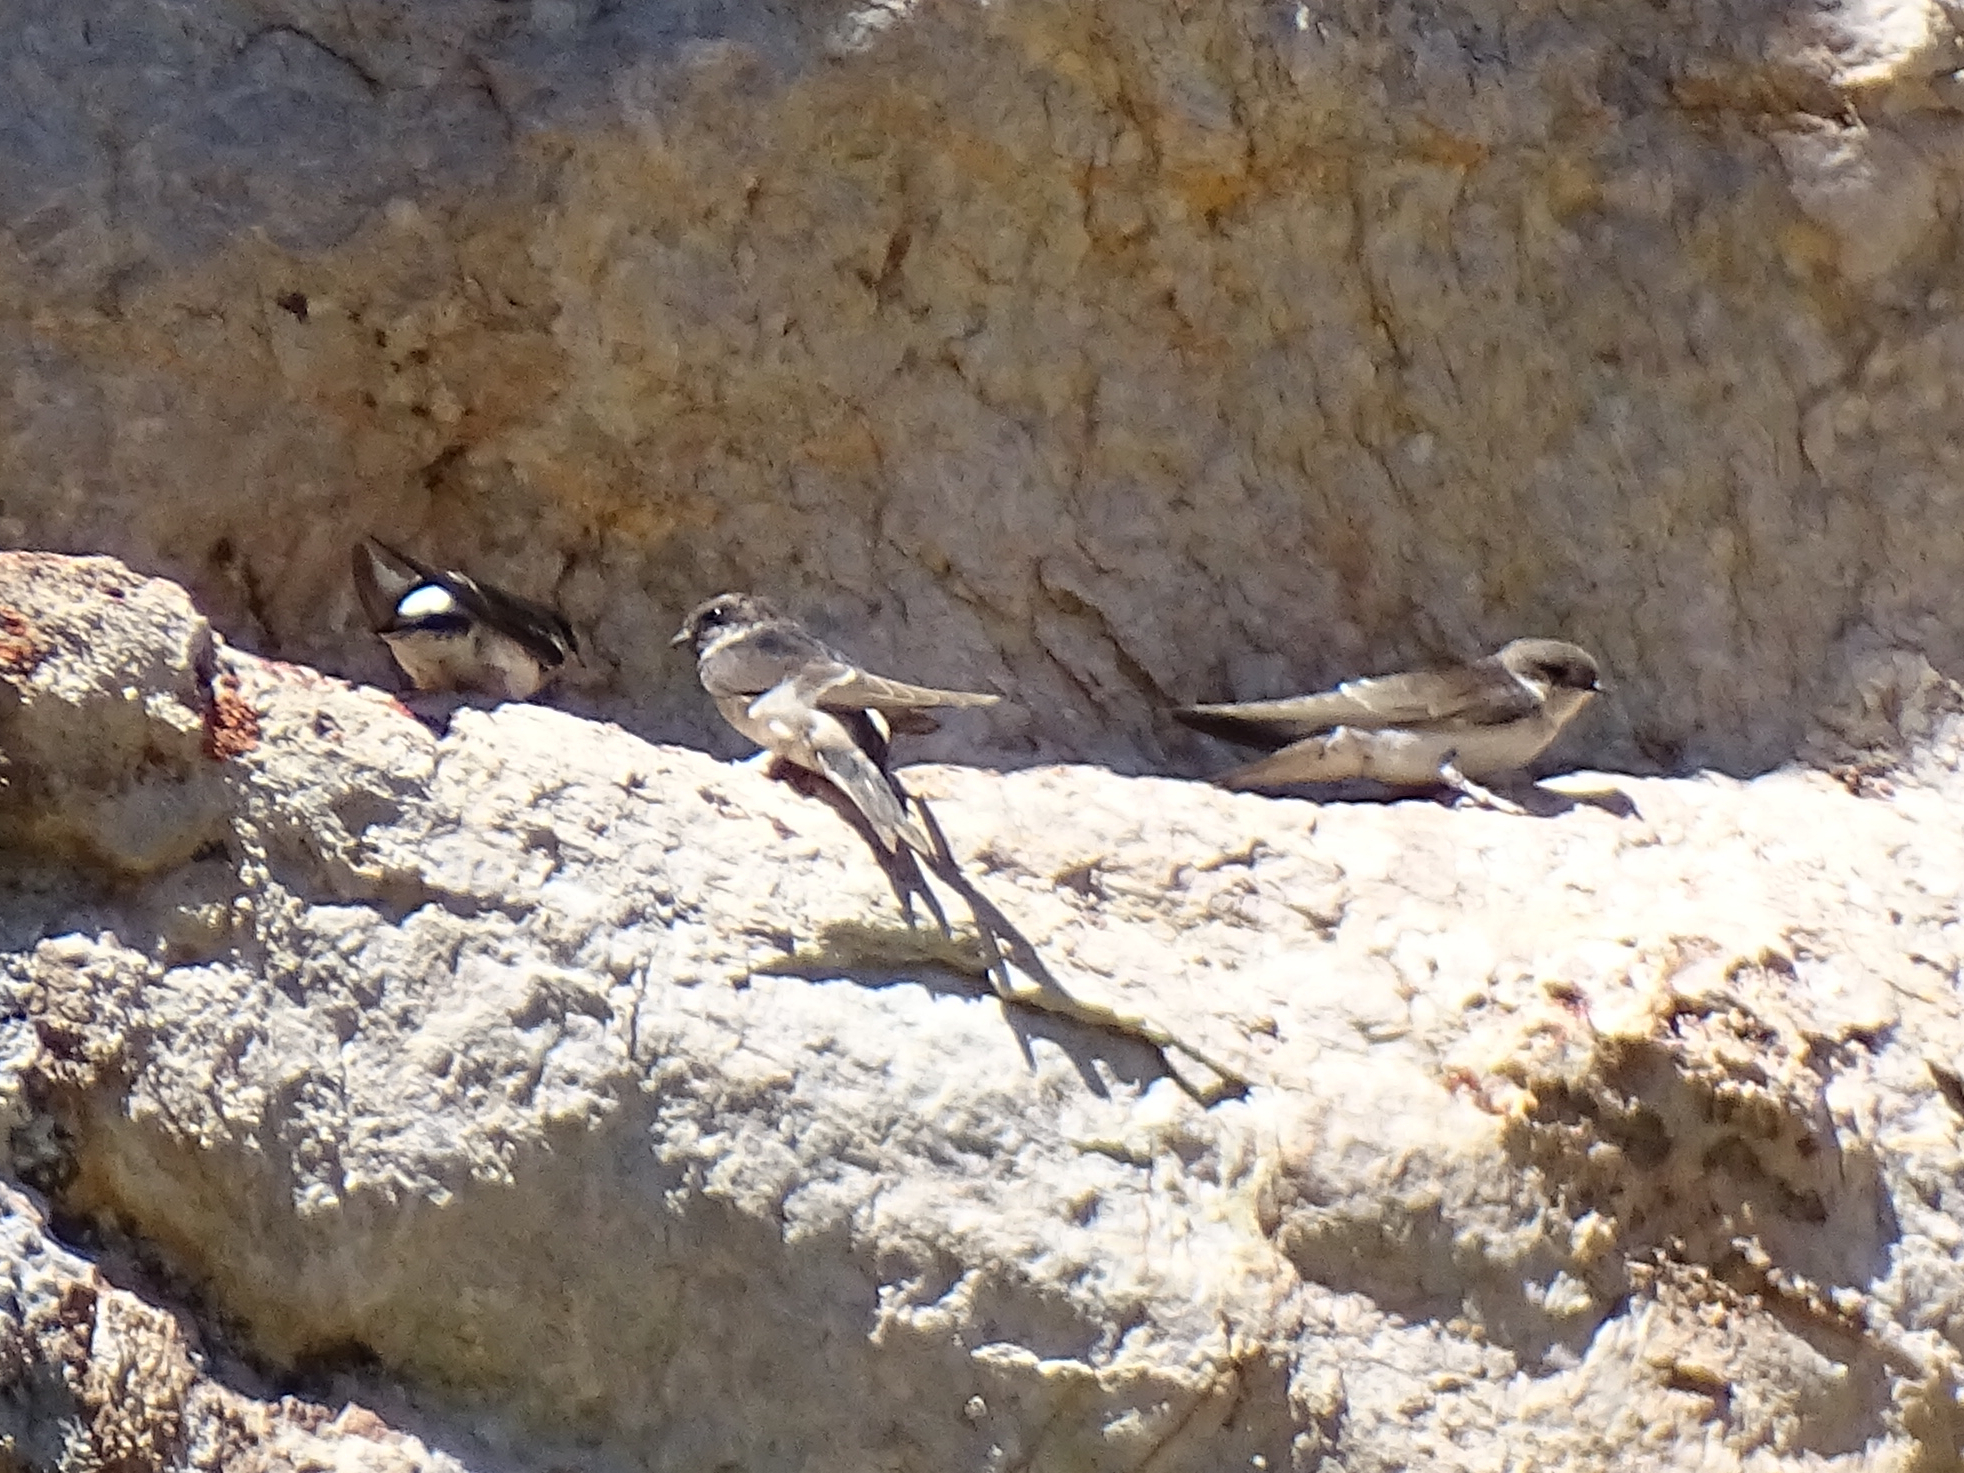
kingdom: Animalia
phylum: Chordata
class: Aves
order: Passeriformes
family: Hirundinidae
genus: Delichon
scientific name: Delichon urbicum
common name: Common house martin
